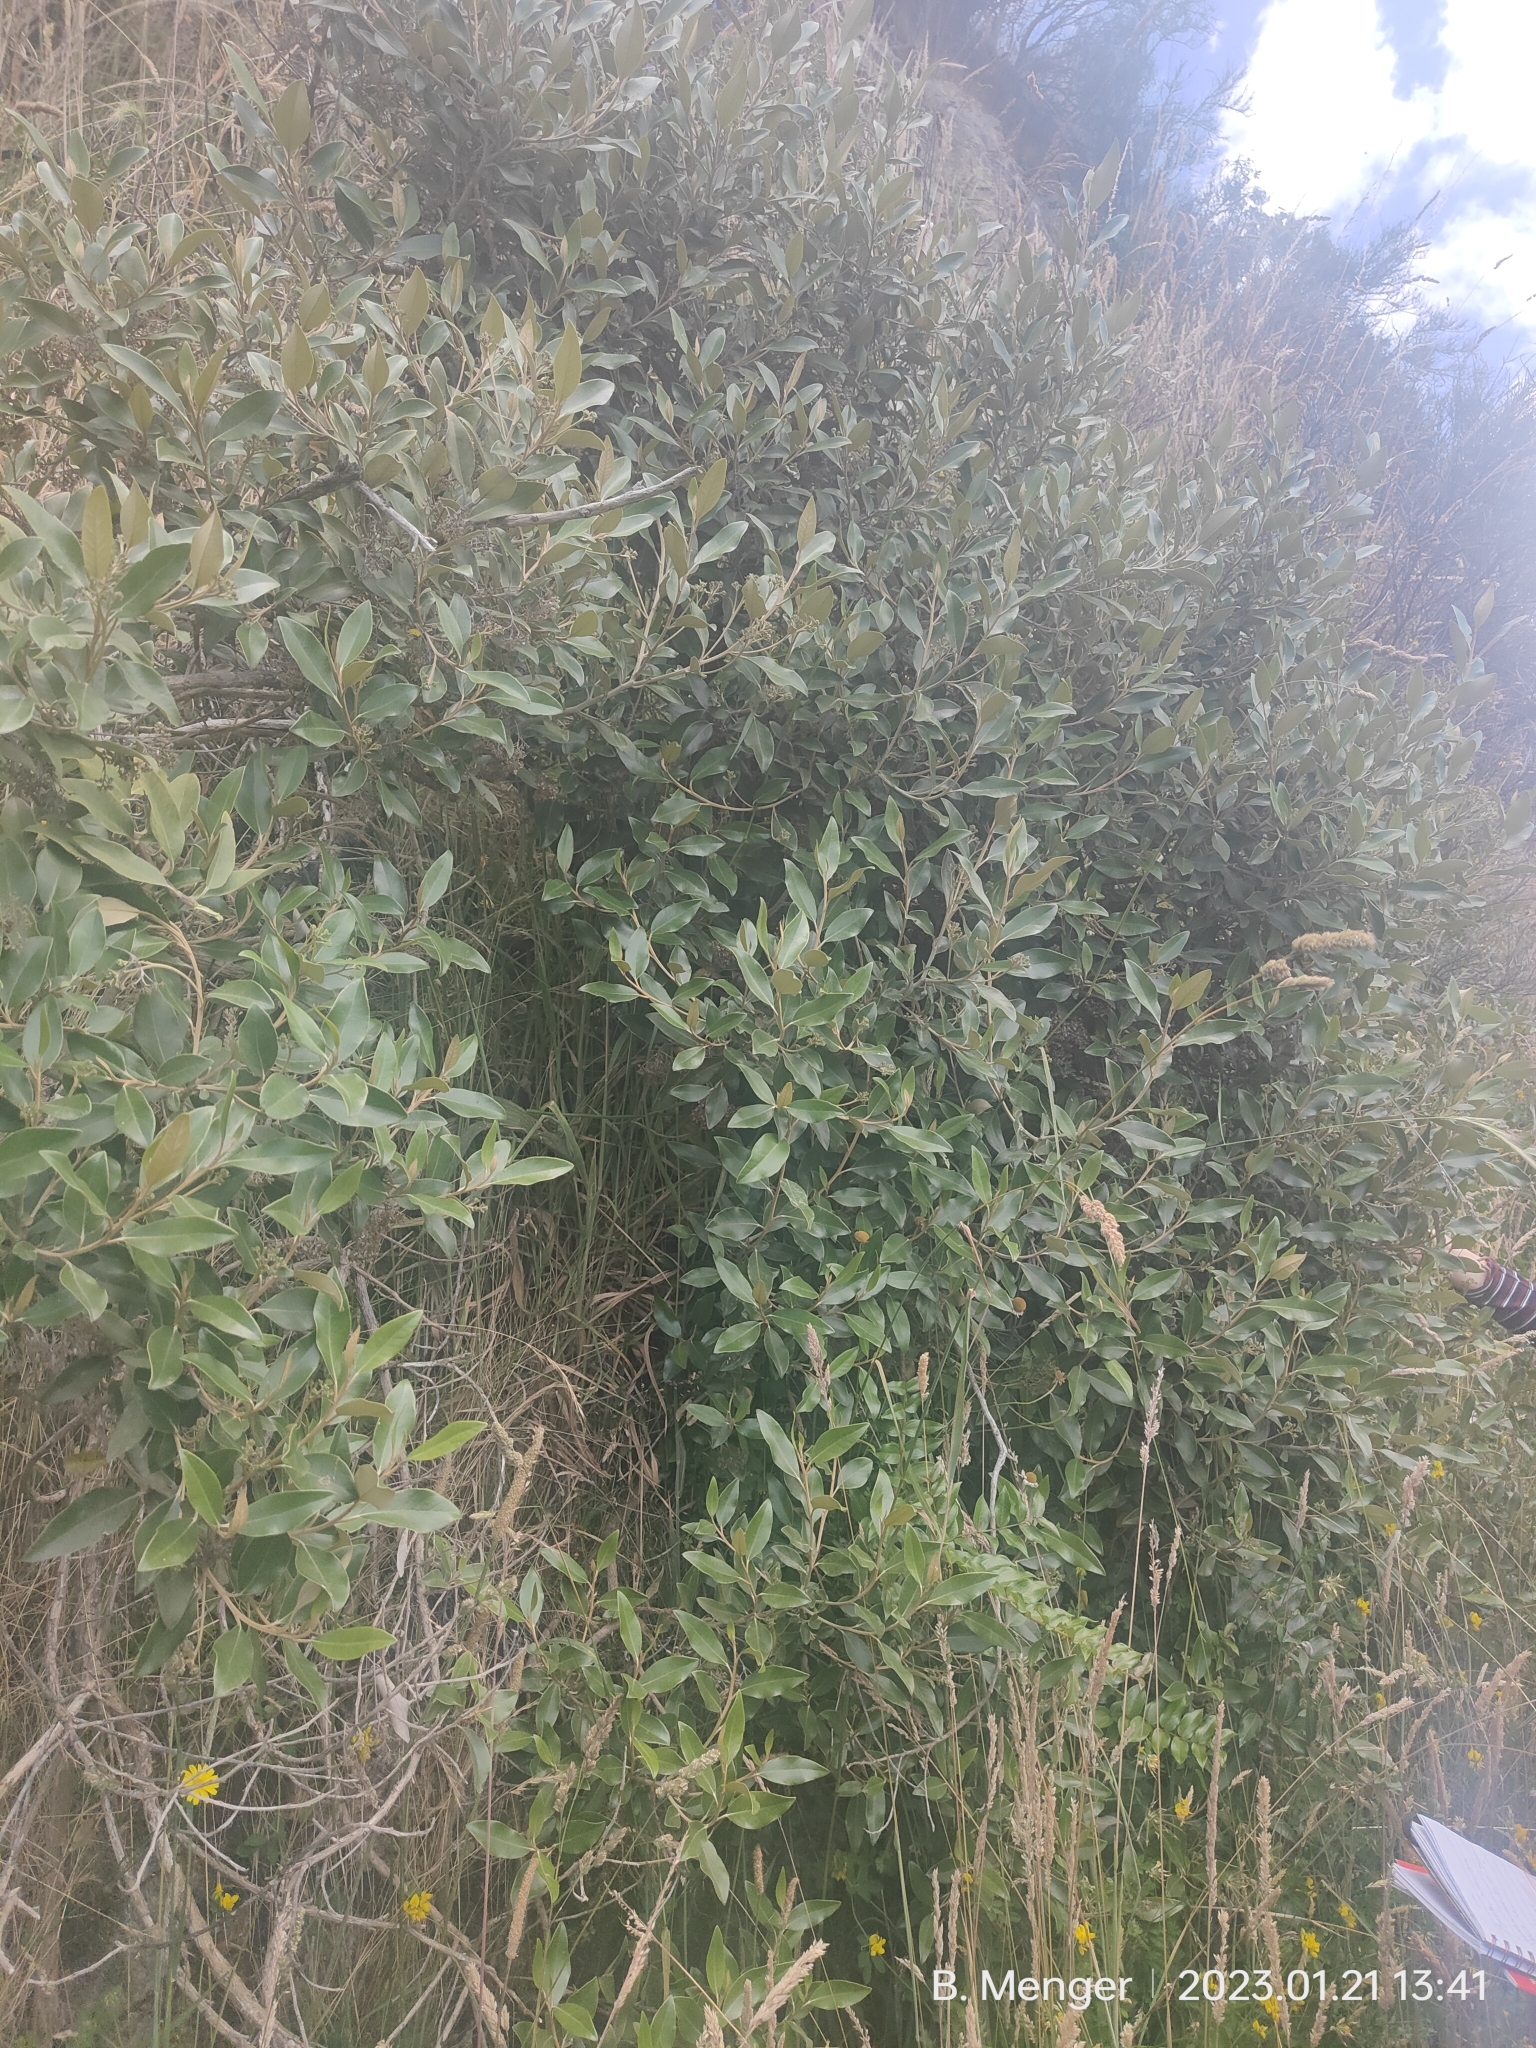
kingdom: Plantae
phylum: Tracheophyta
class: Magnoliopsida
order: Asterales
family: Asteraceae
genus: Olearia
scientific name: Olearia avicenniifolia
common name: Mangrove-leaf daisybush
